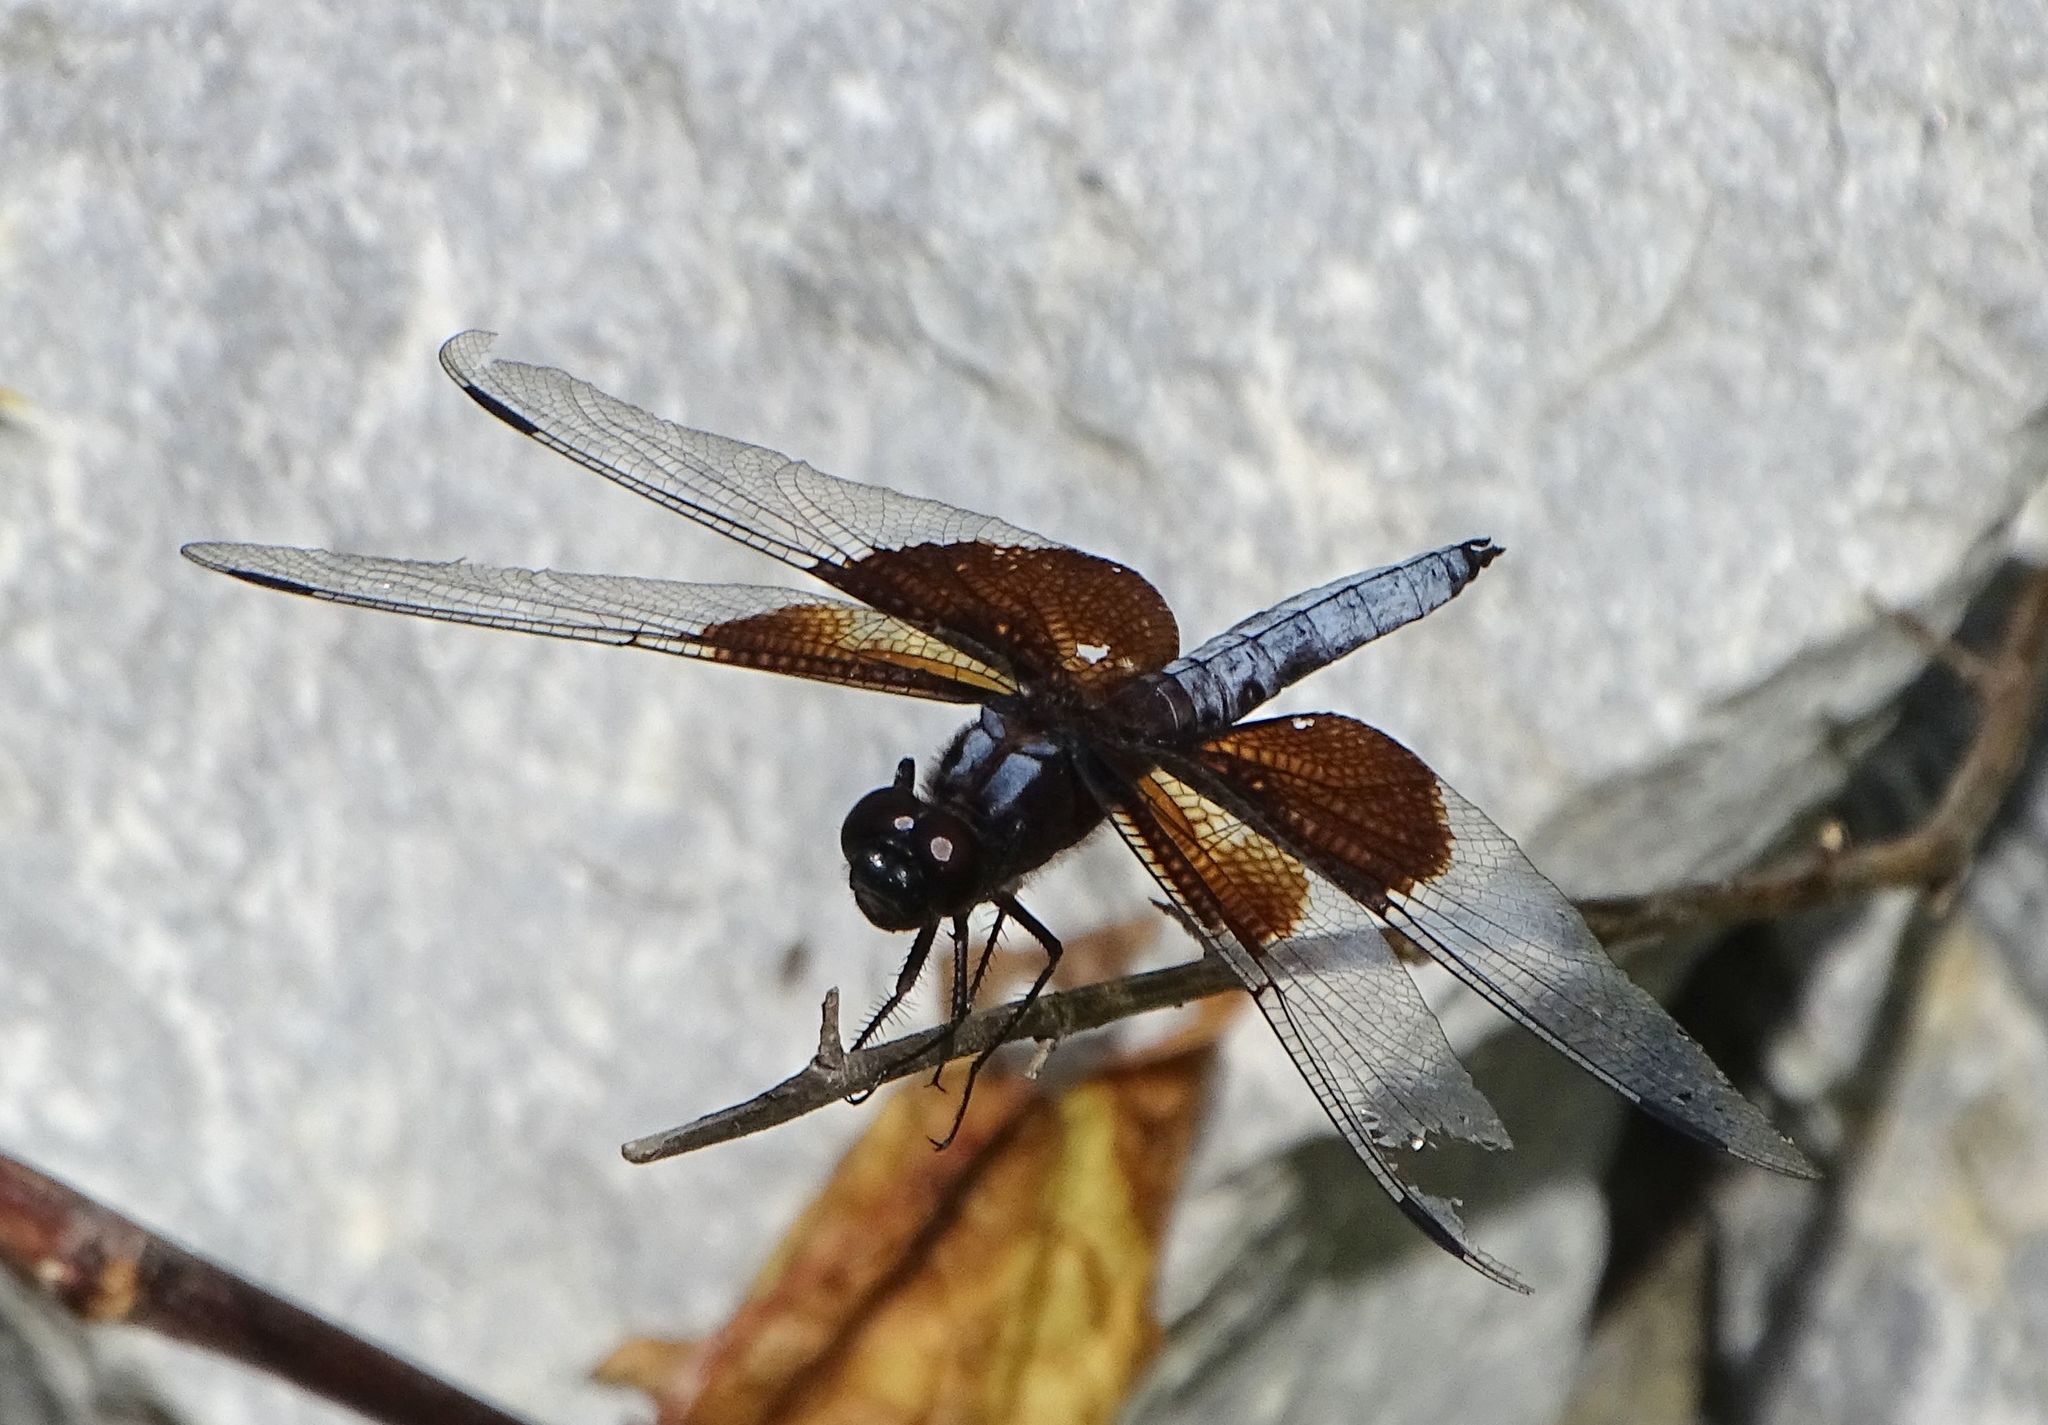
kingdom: Animalia
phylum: Arthropoda
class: Insecta
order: Odonata
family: Libellulidae
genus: Libellula
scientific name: Libellula luctuosa
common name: Widow skimmer
